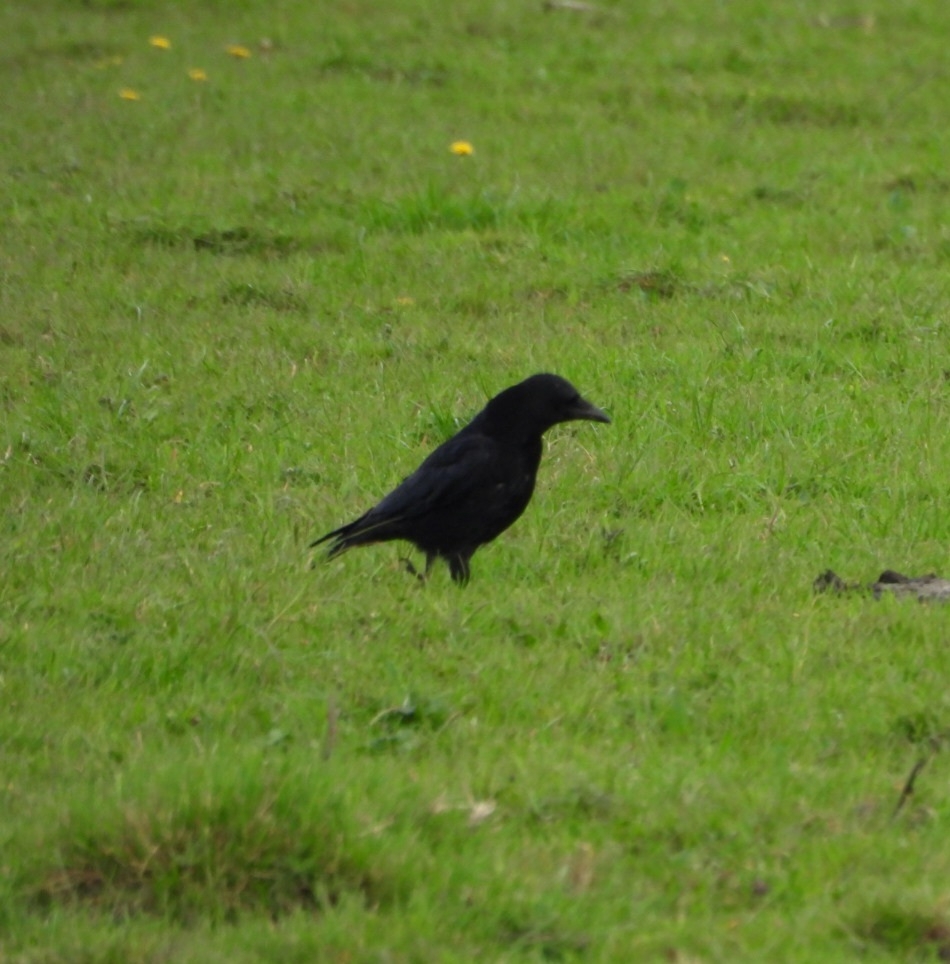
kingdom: Animalia
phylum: Chordata
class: Aves
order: Passeriformes
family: Corvidae
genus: Corvus
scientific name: Corvus corone
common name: Carrion crow
